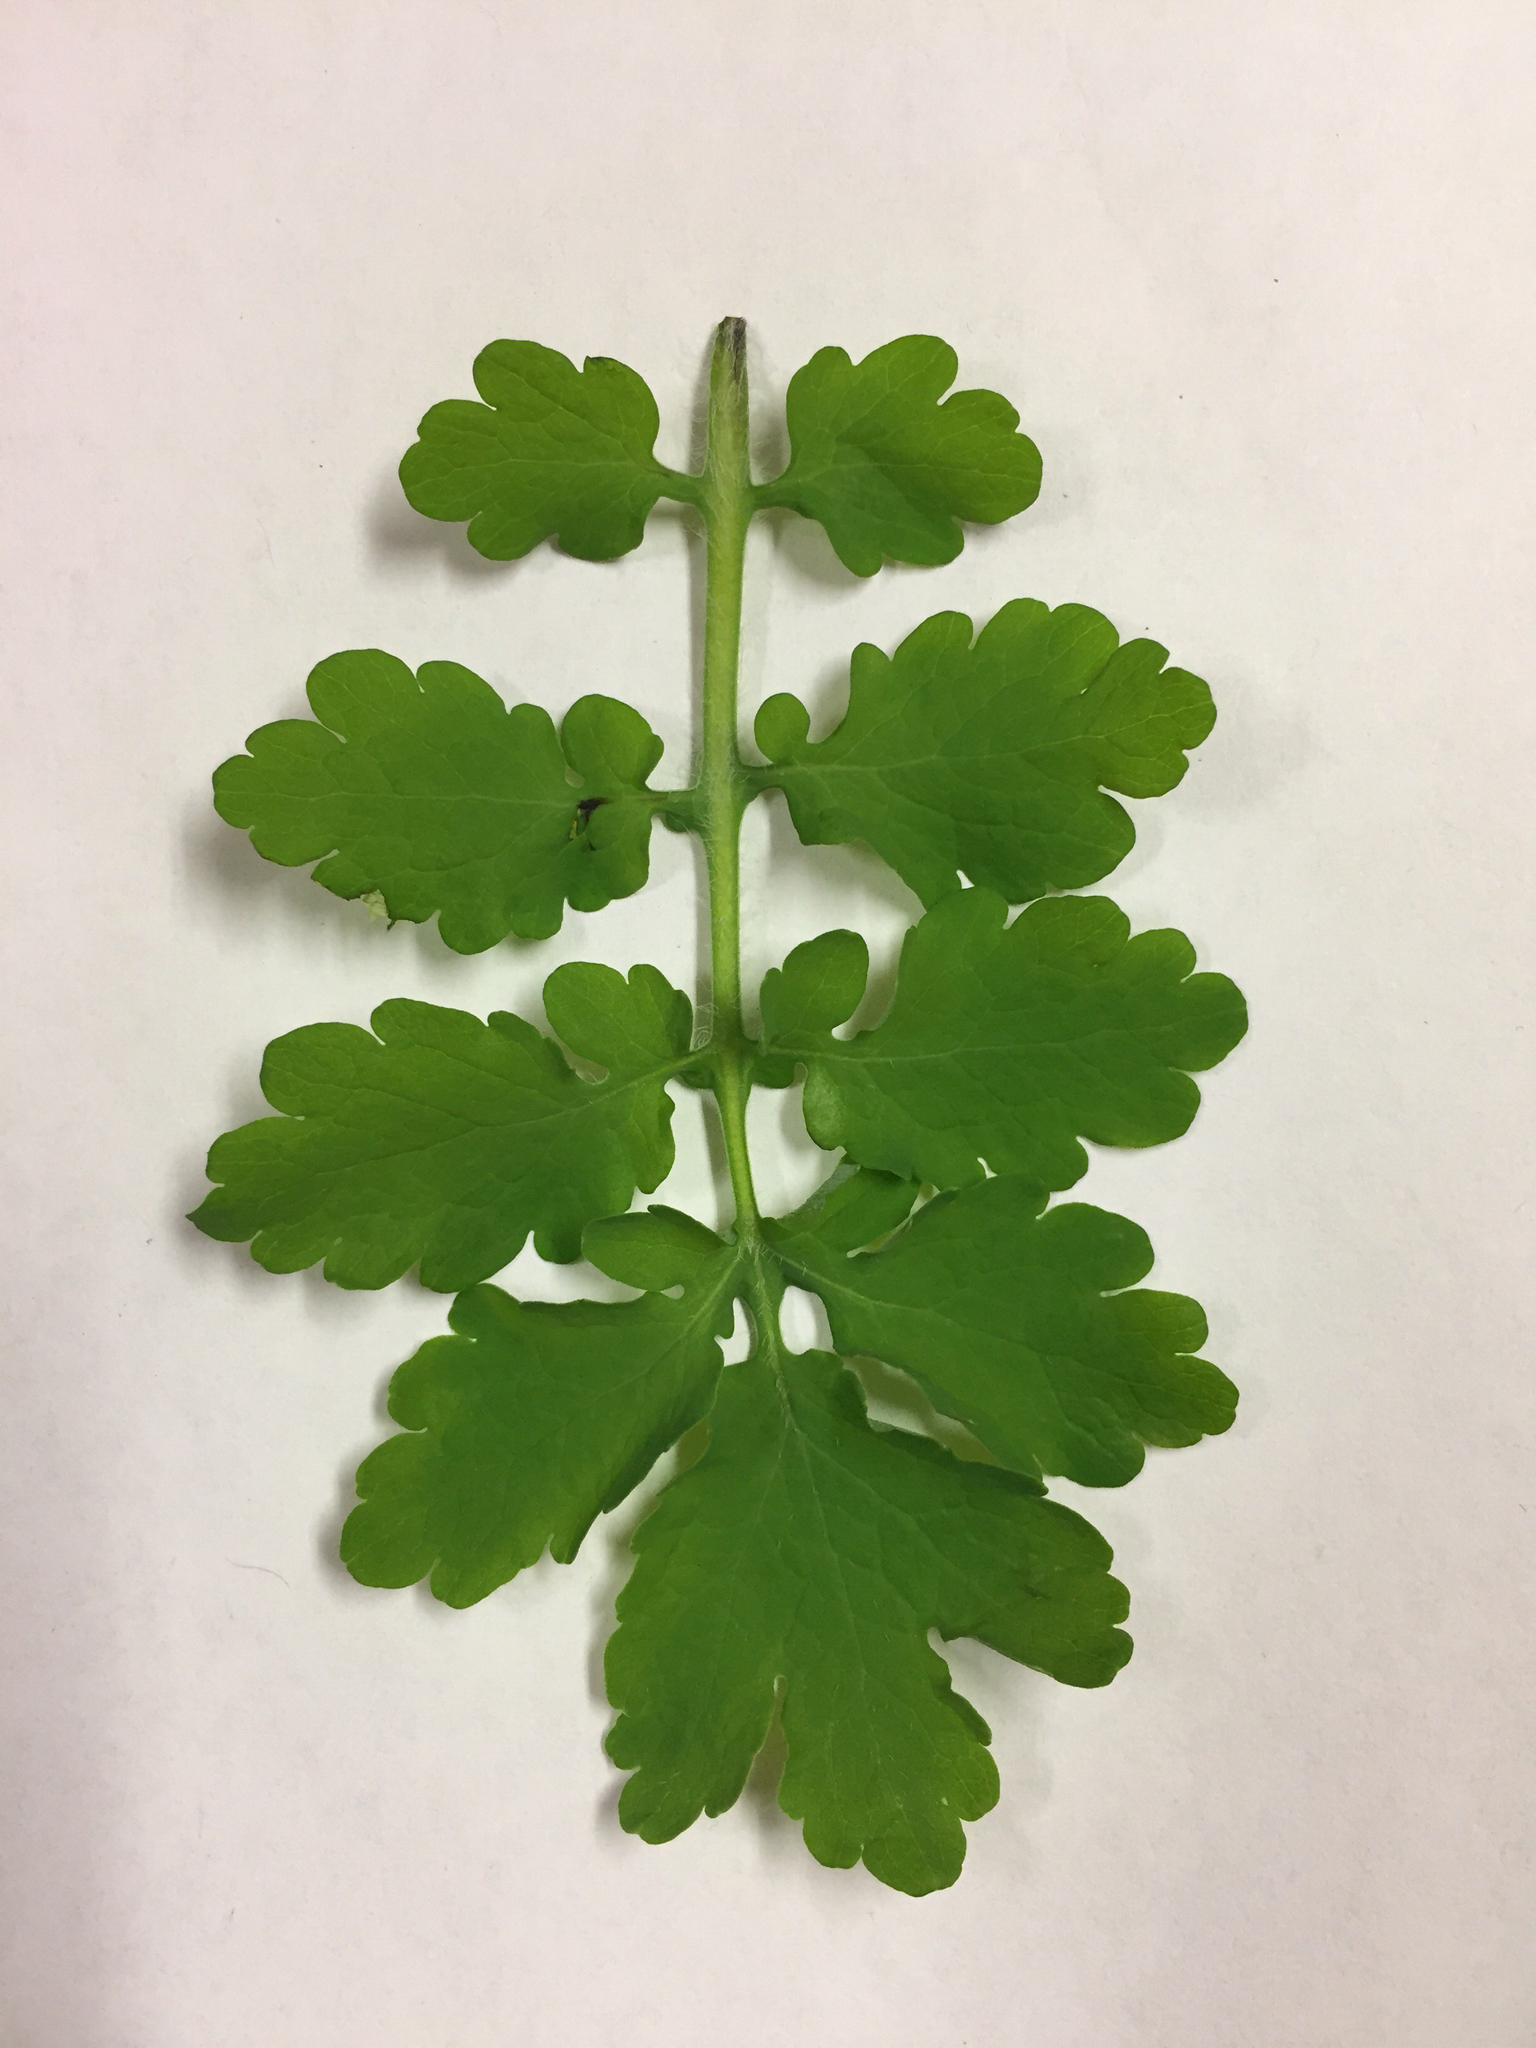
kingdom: Plantae
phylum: Tracheophyta
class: Magnoliopsida
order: Ranunculales
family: Papaveraceae
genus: Chelidonium
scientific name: Chelidonium majus
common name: Greater celandine
